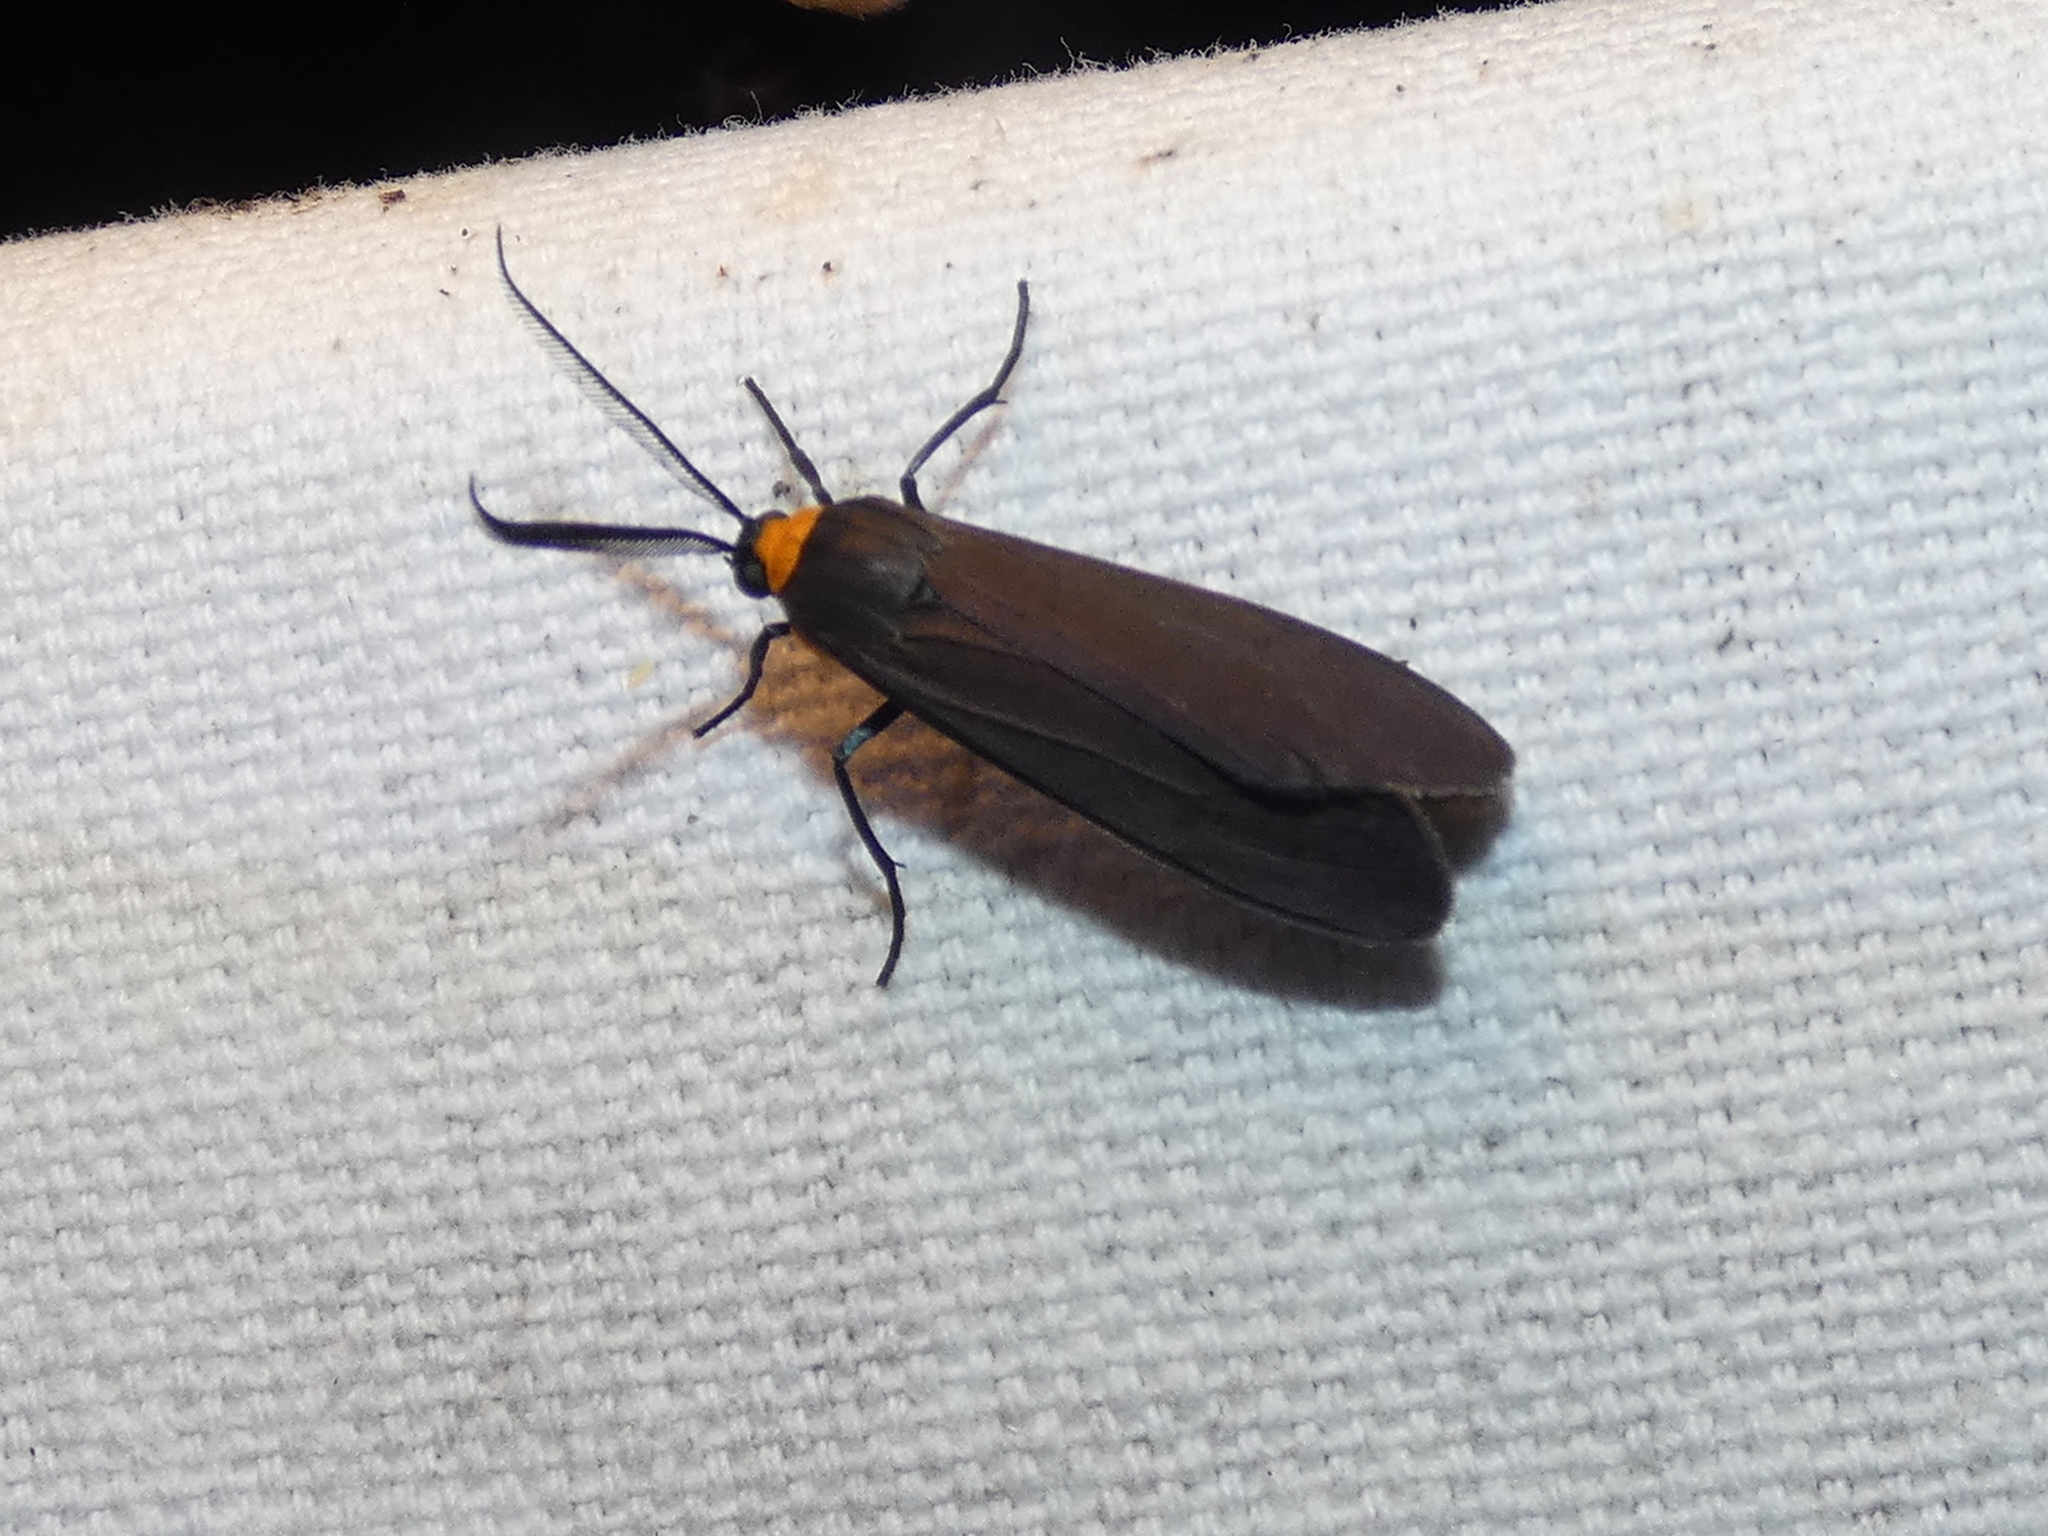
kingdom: Animalia
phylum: Arthropoda
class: Insecta
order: Lepidoptera
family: Erebidae
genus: Cisseps
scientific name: Cisseps fulvicollis
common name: Yellow-collared scape moth
